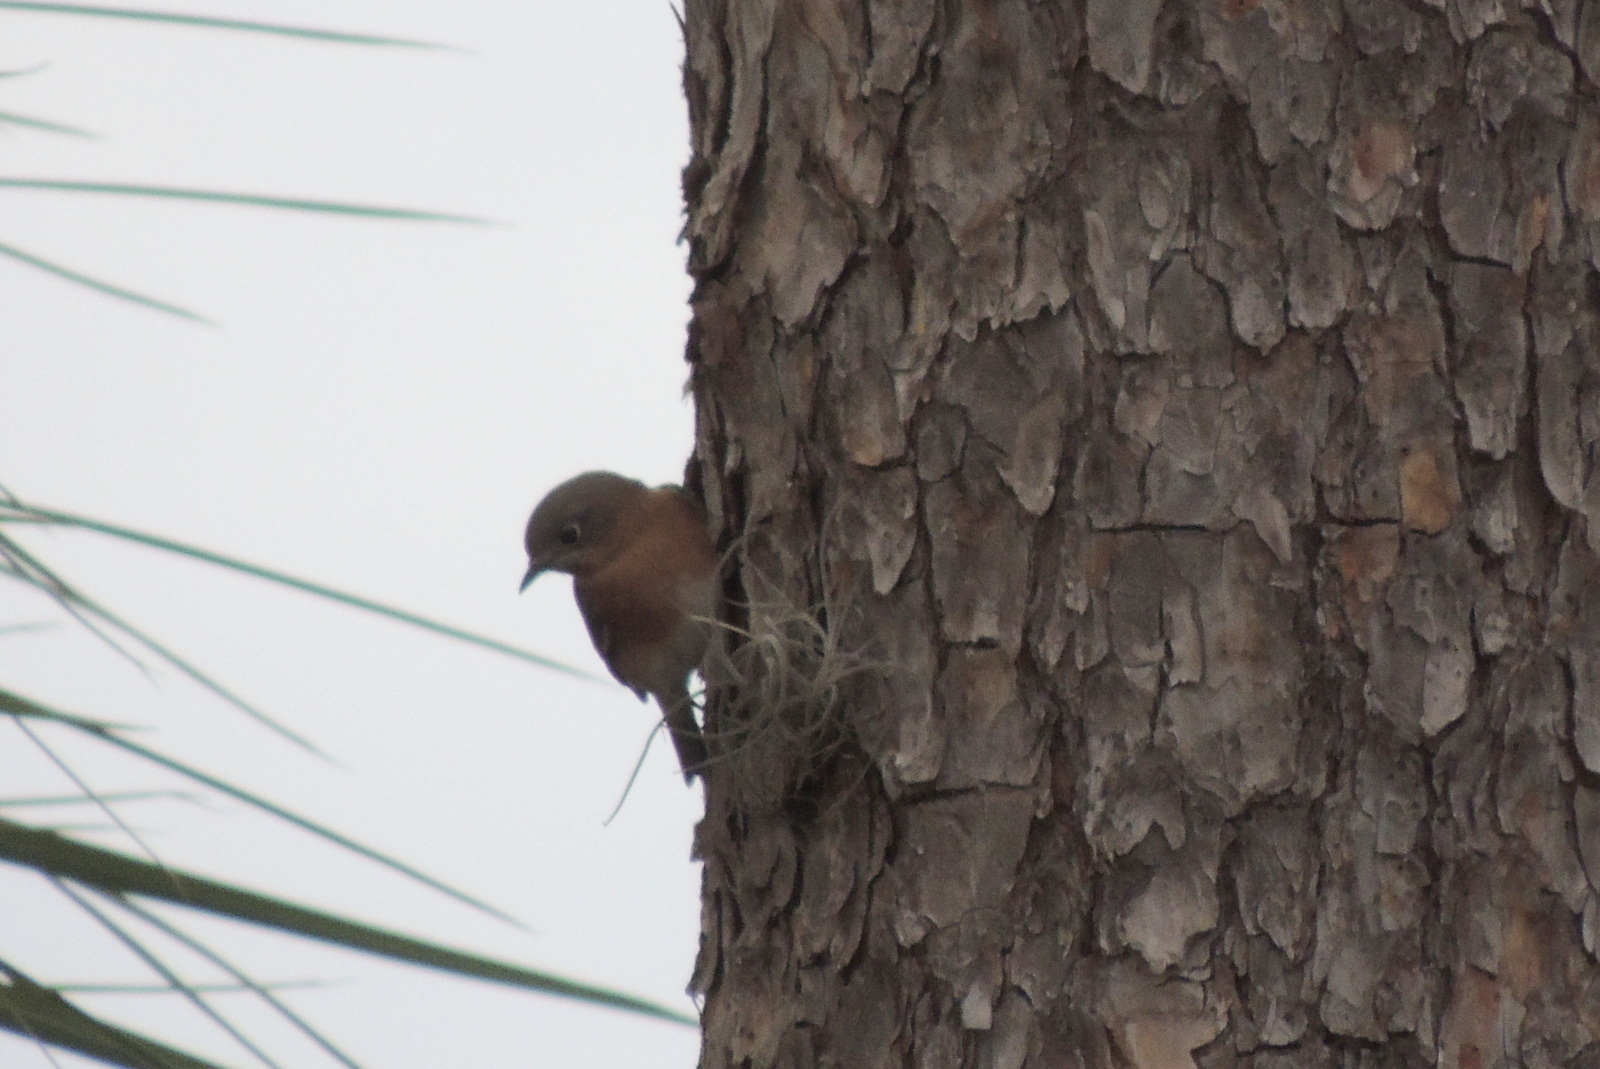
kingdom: Animalia
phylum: Chordata
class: Aves
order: Passeriformes
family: Turdidae
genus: Sialia
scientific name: Sialia sialis
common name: Eastern bluebird
